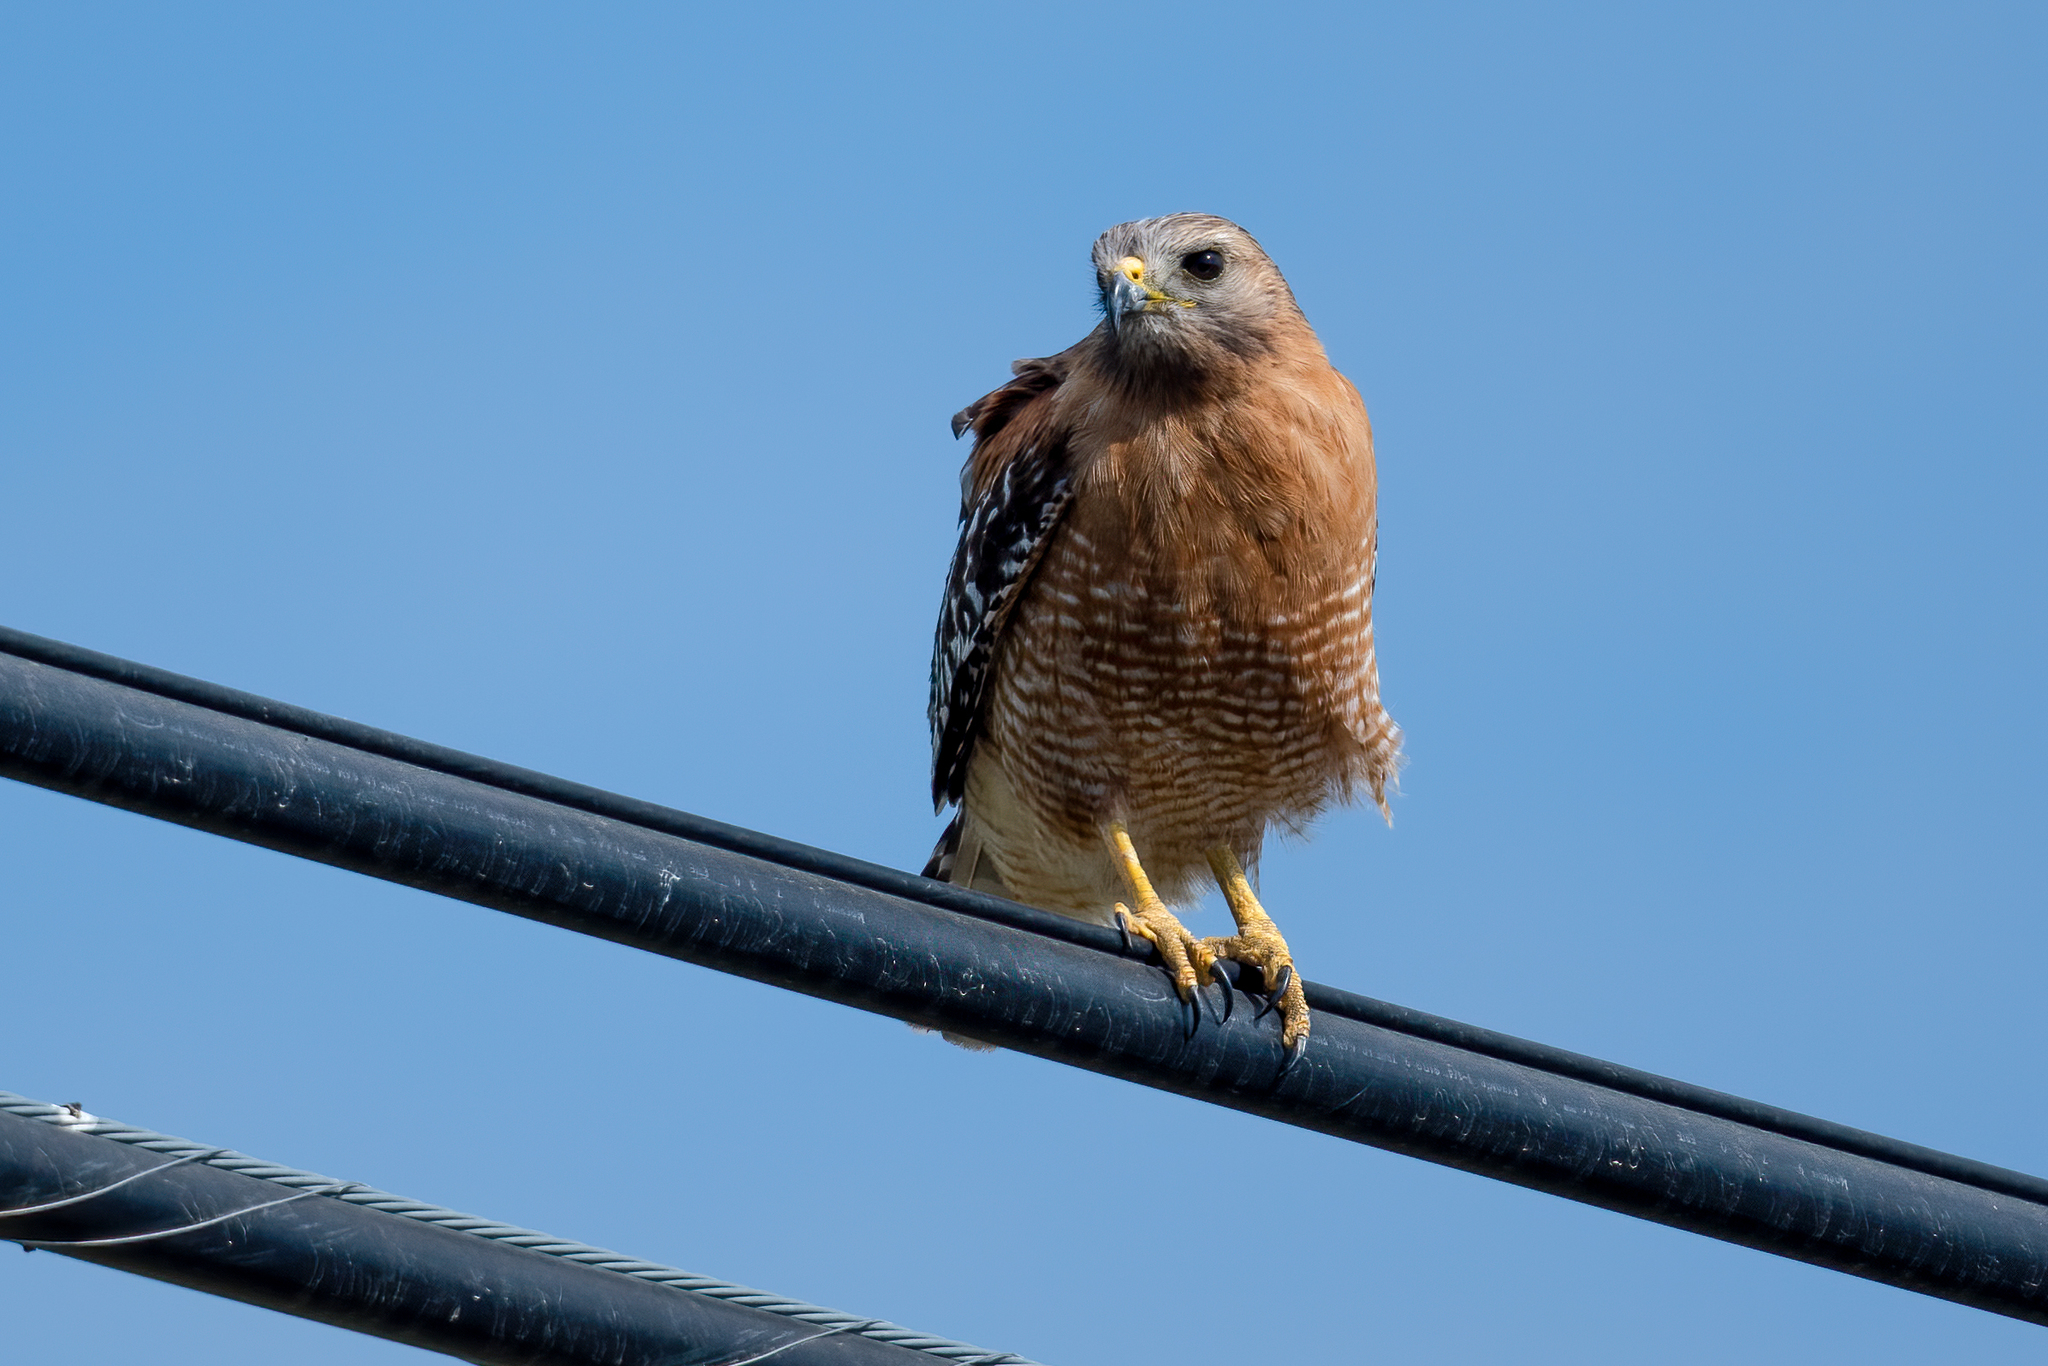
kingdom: Animalia
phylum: Chordata
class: Aves
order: Accipitriformes
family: Accipitridae
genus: Buteo
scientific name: Buteo lineatus
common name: Red-shouldered hawk
